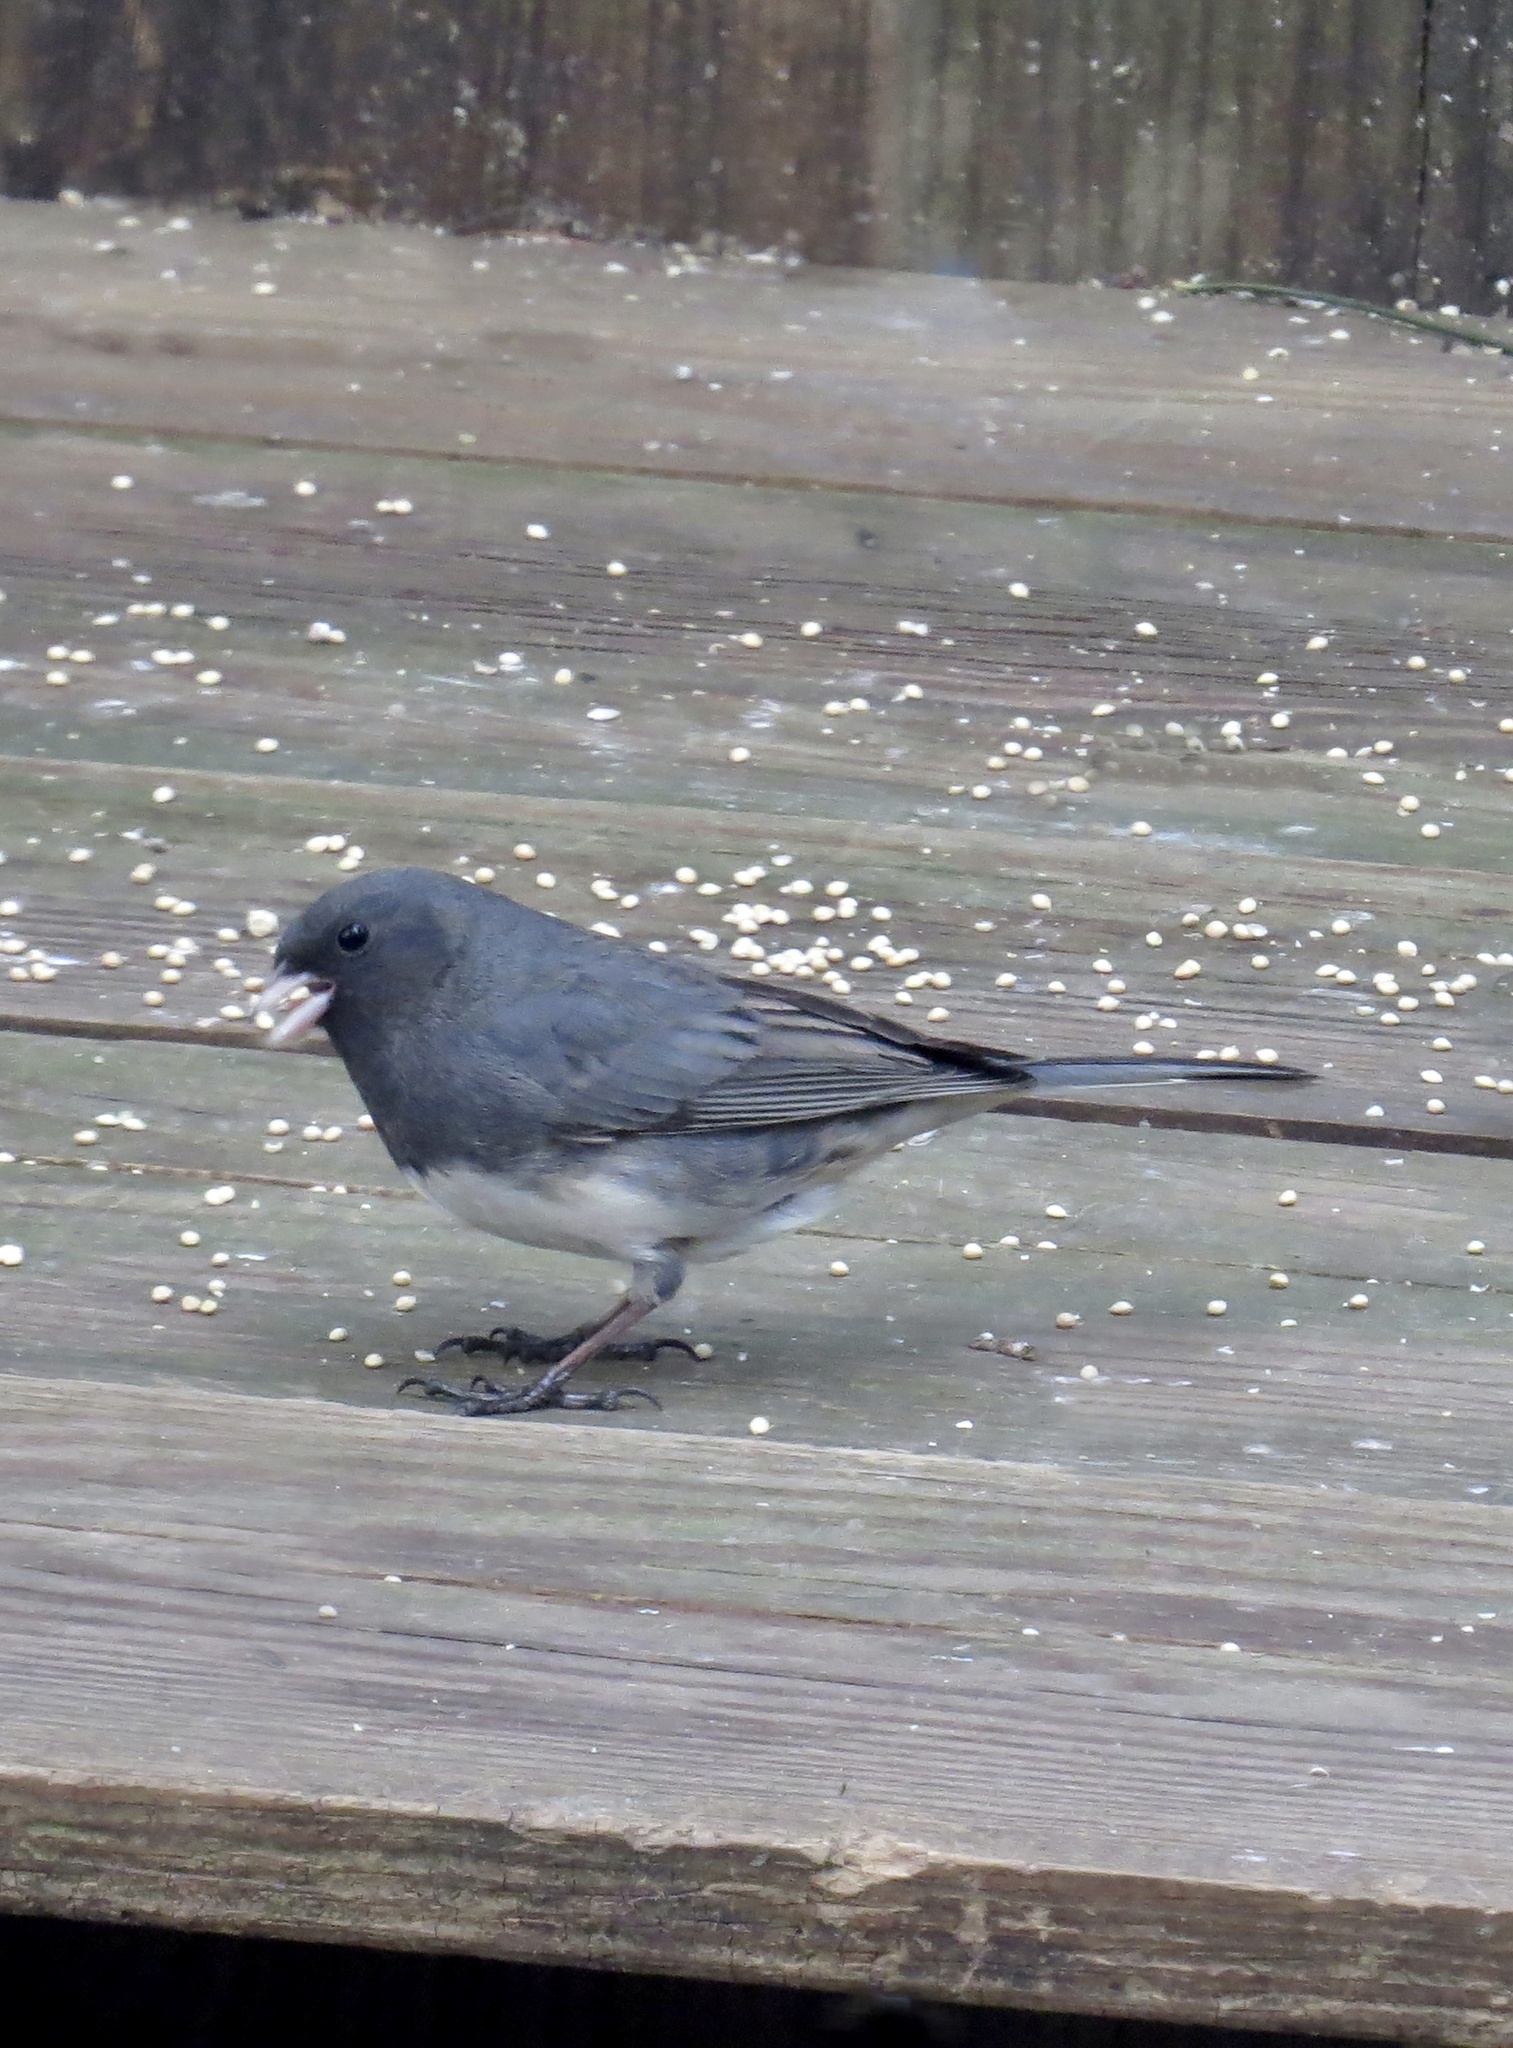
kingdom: Animalia
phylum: Chordata
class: Aves
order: Passeriformes
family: Passerellidae
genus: Junco
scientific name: Junco hyemalis
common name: Dark-eyed junco
